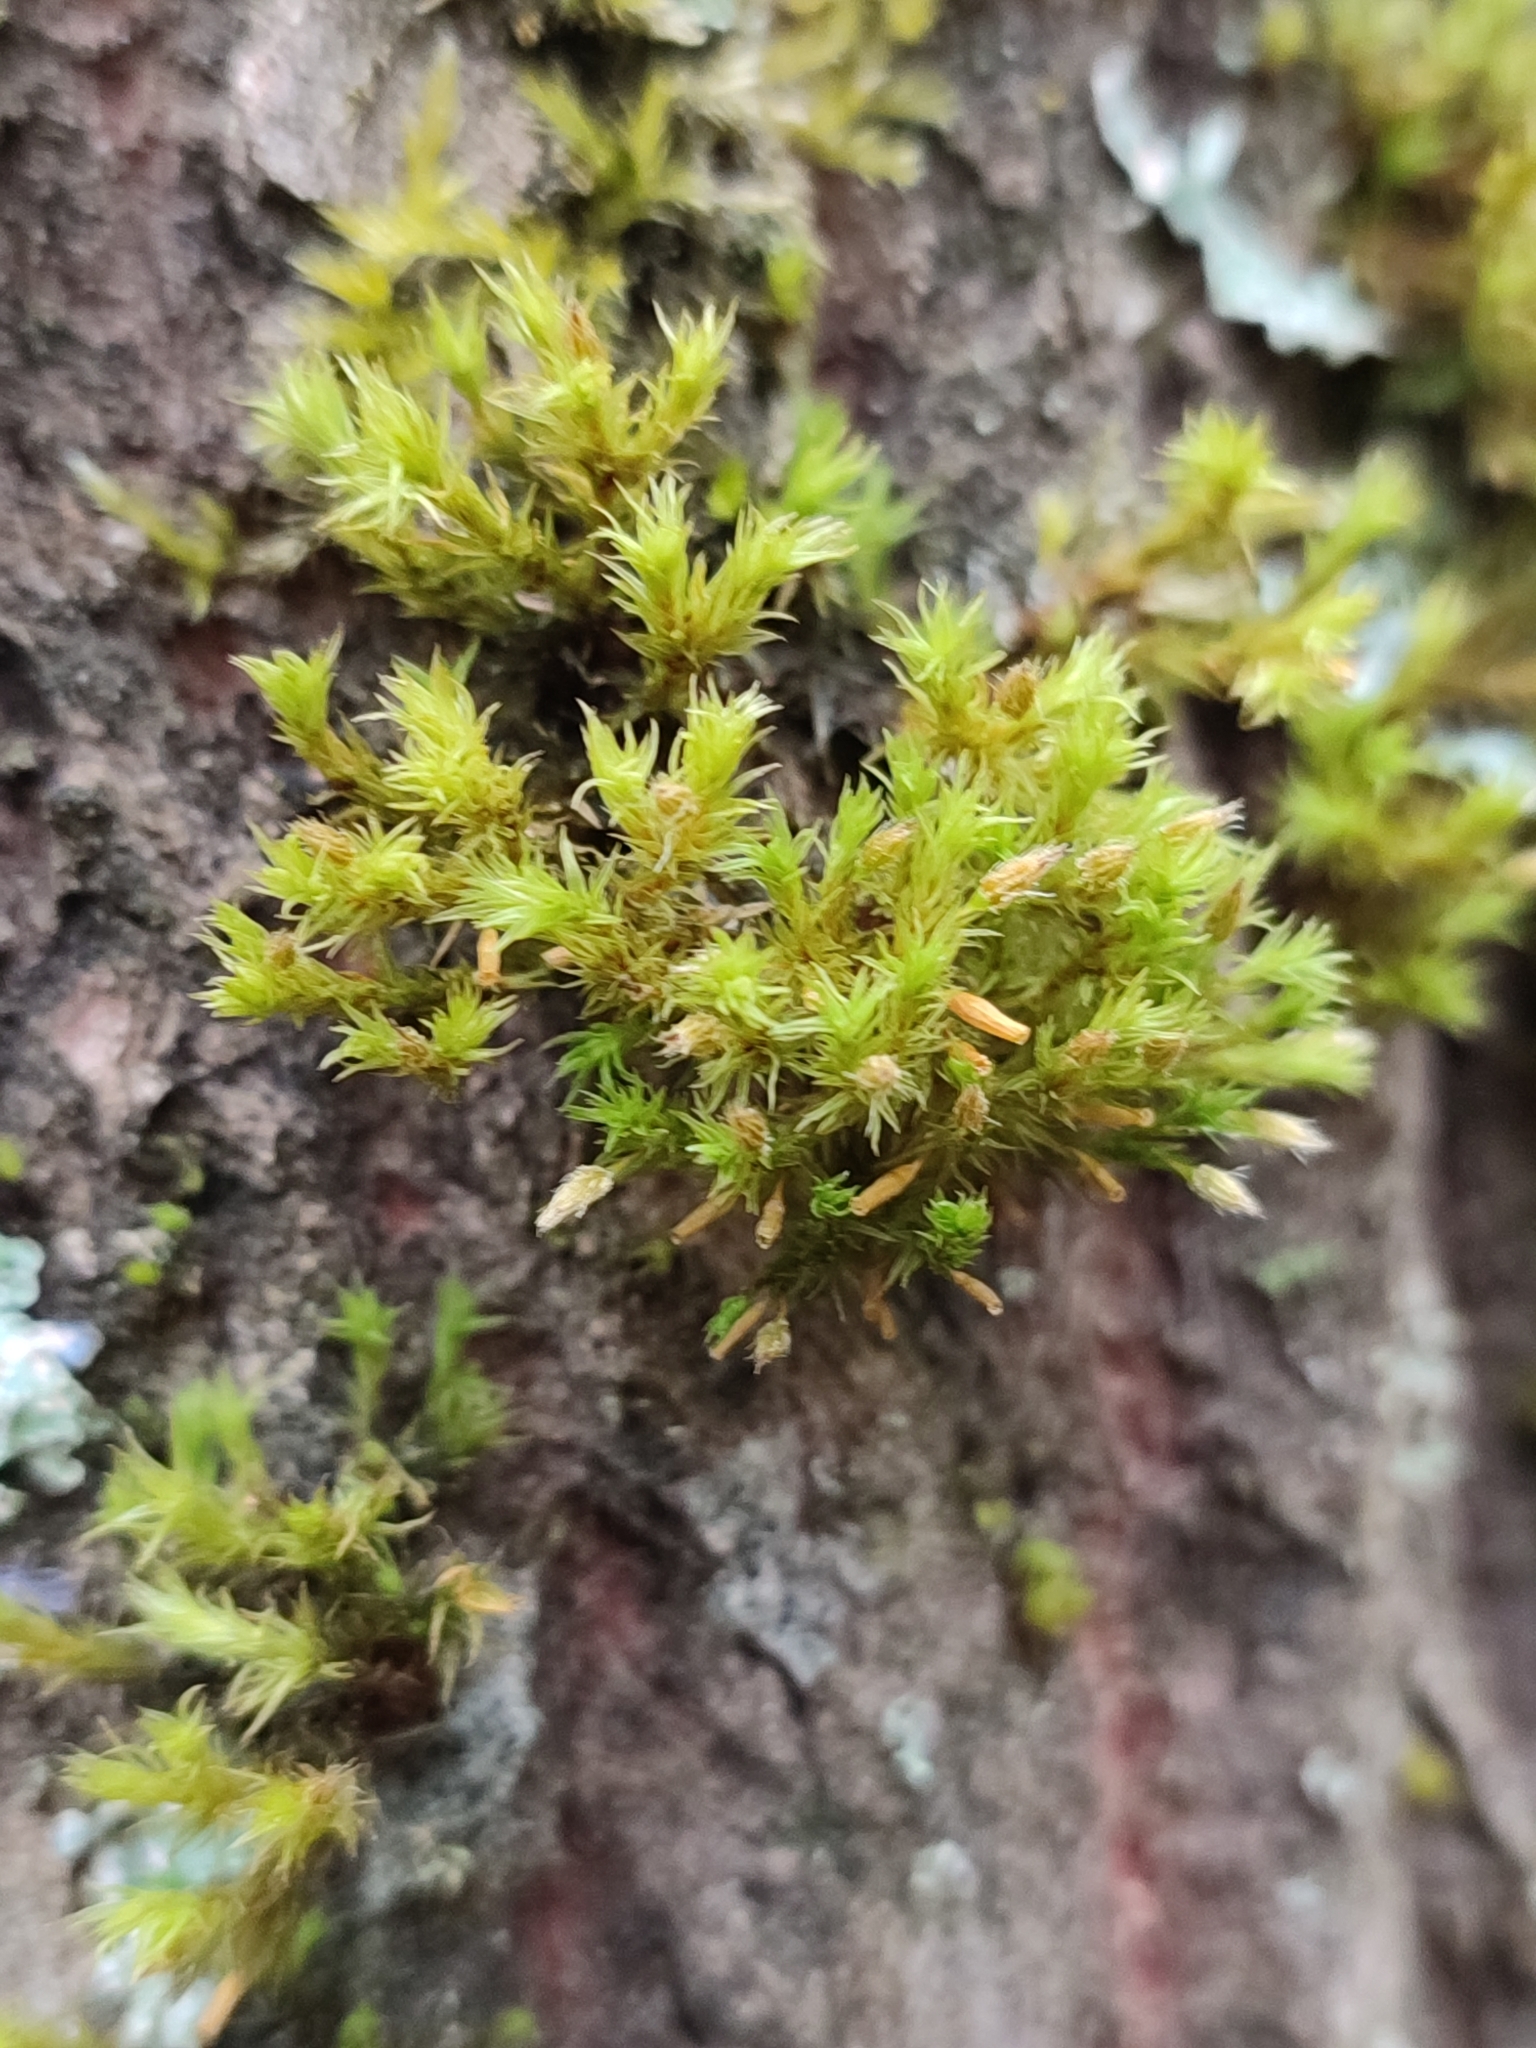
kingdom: Plantae
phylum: Bryophyta
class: Bryopsida
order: Orthotrichales
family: Orthotrichaceae
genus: Lewinskya
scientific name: Lewinskya speciosa
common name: Showy bristle moss
